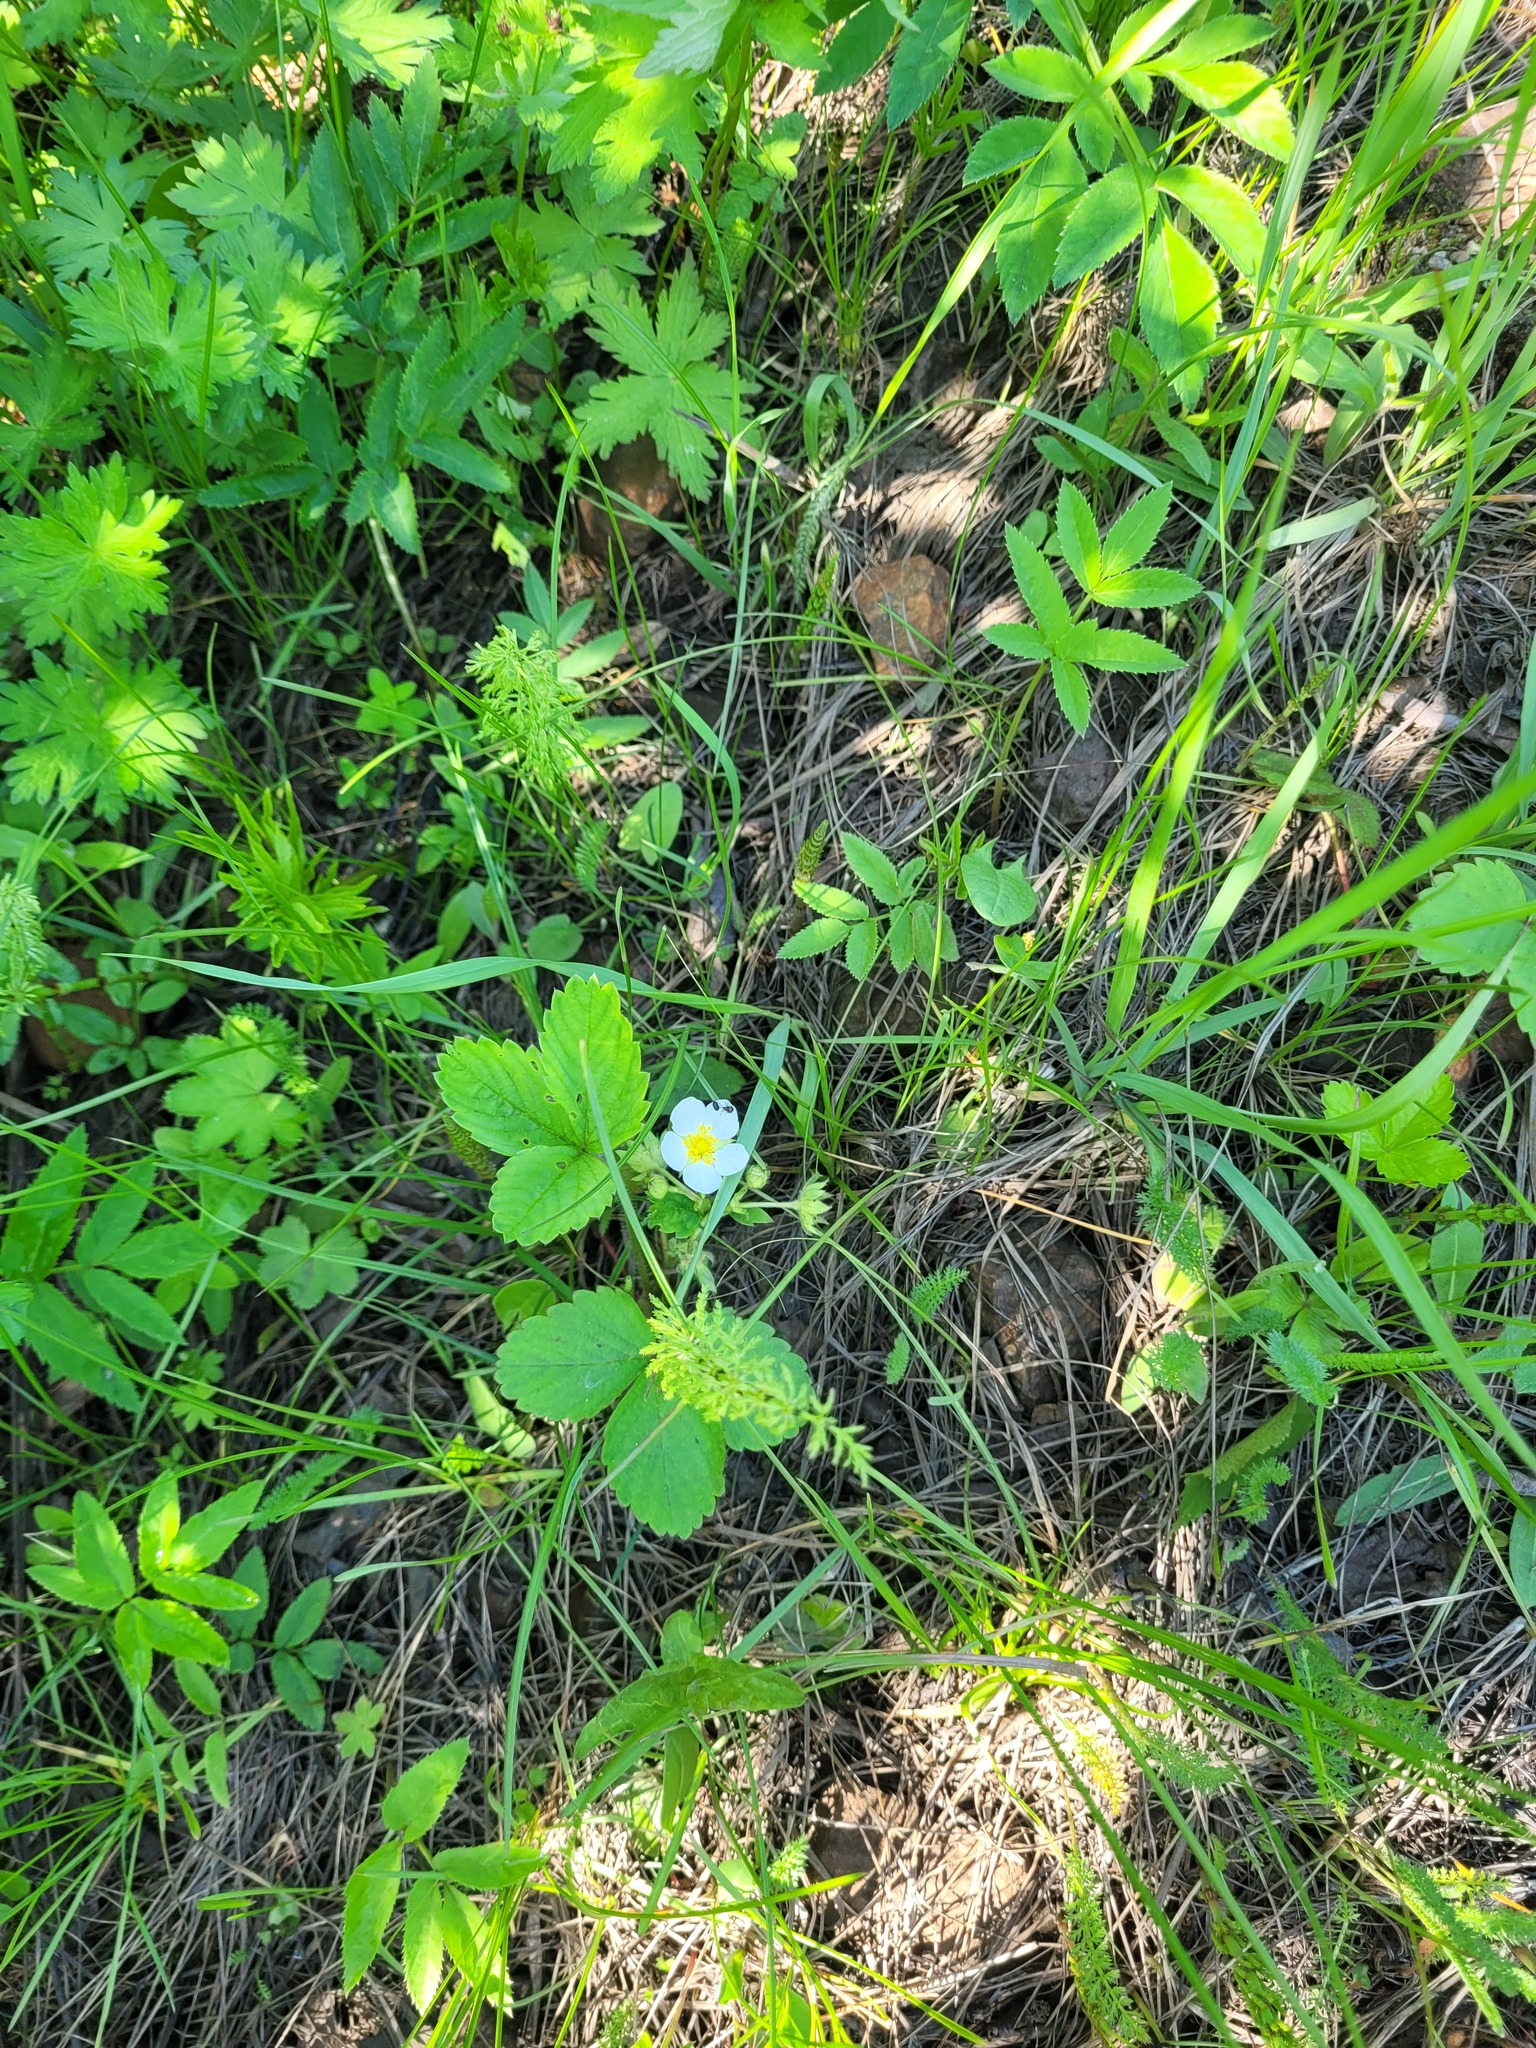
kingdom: Plantae
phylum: Tracheophyta
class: Magnoliopsida
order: Rosales
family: Rosaceae
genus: Fragaria
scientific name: Fragaria ananassa
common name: Garden strawberry
